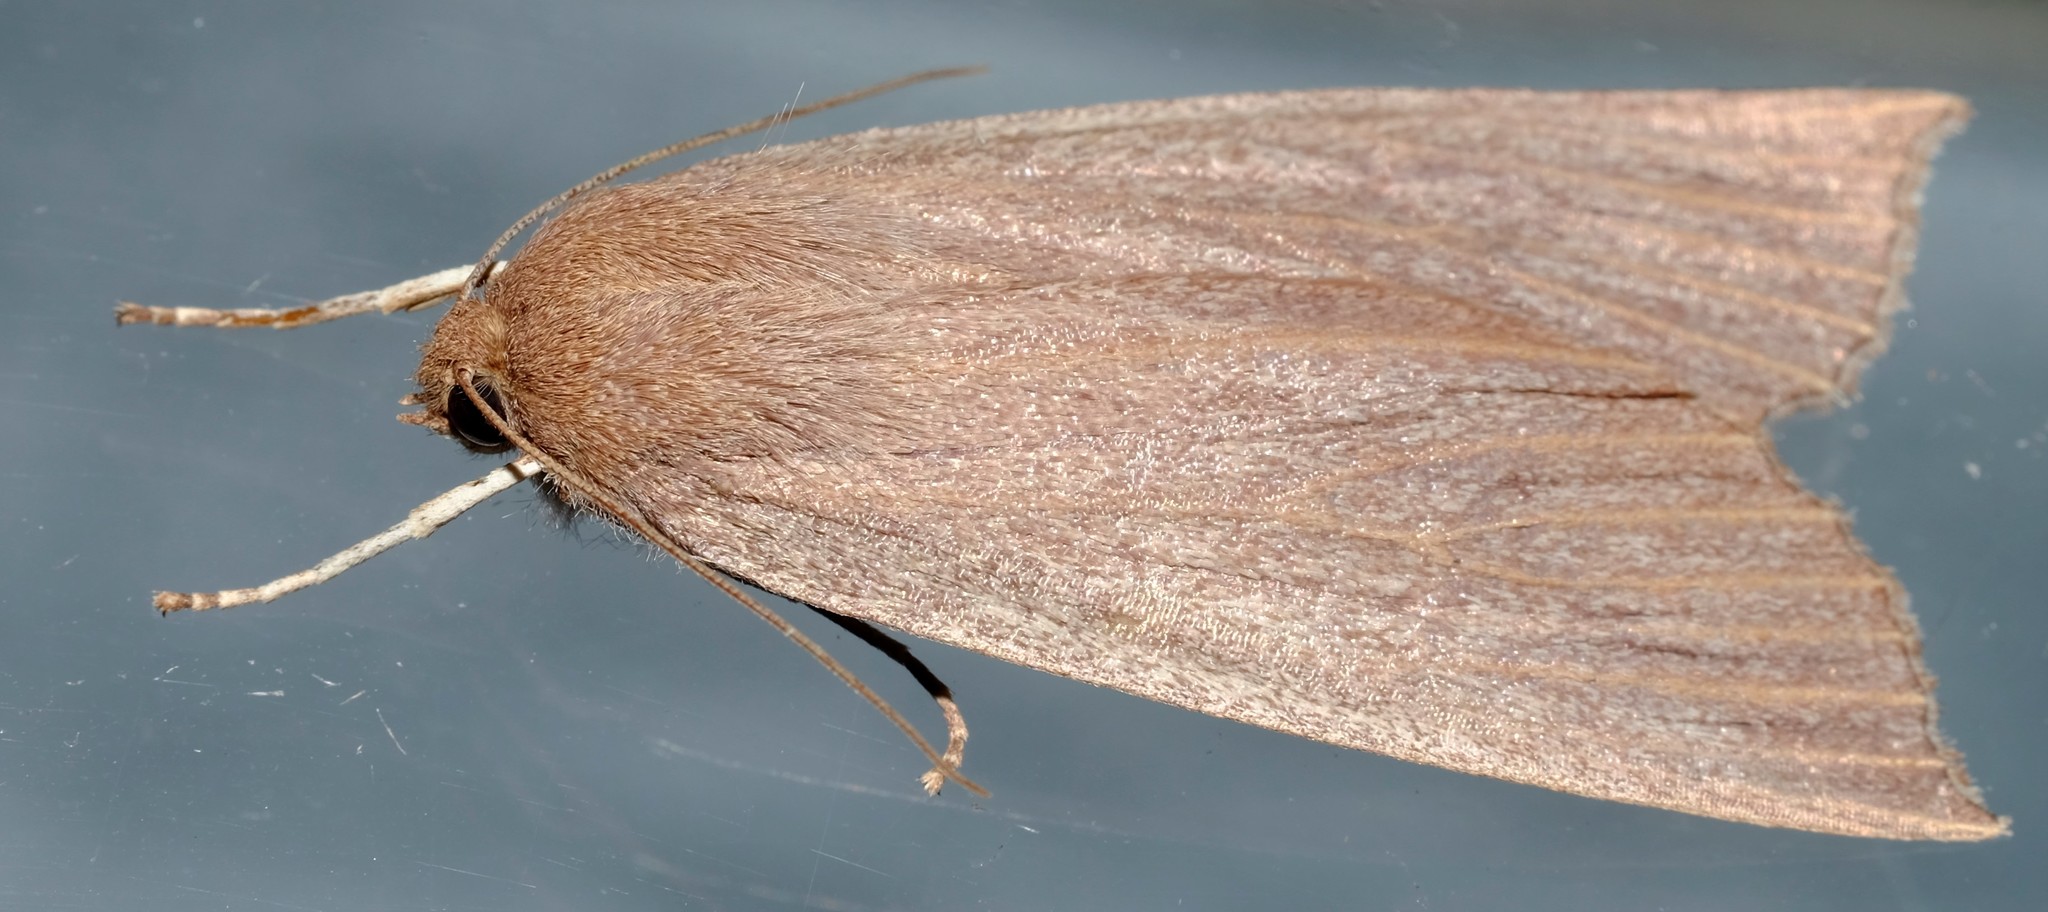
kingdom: Animalia
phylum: Arthropoda
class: Insecta
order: Lepidoptera
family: Geometridae
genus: Palleopa
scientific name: Palleopa innotata
